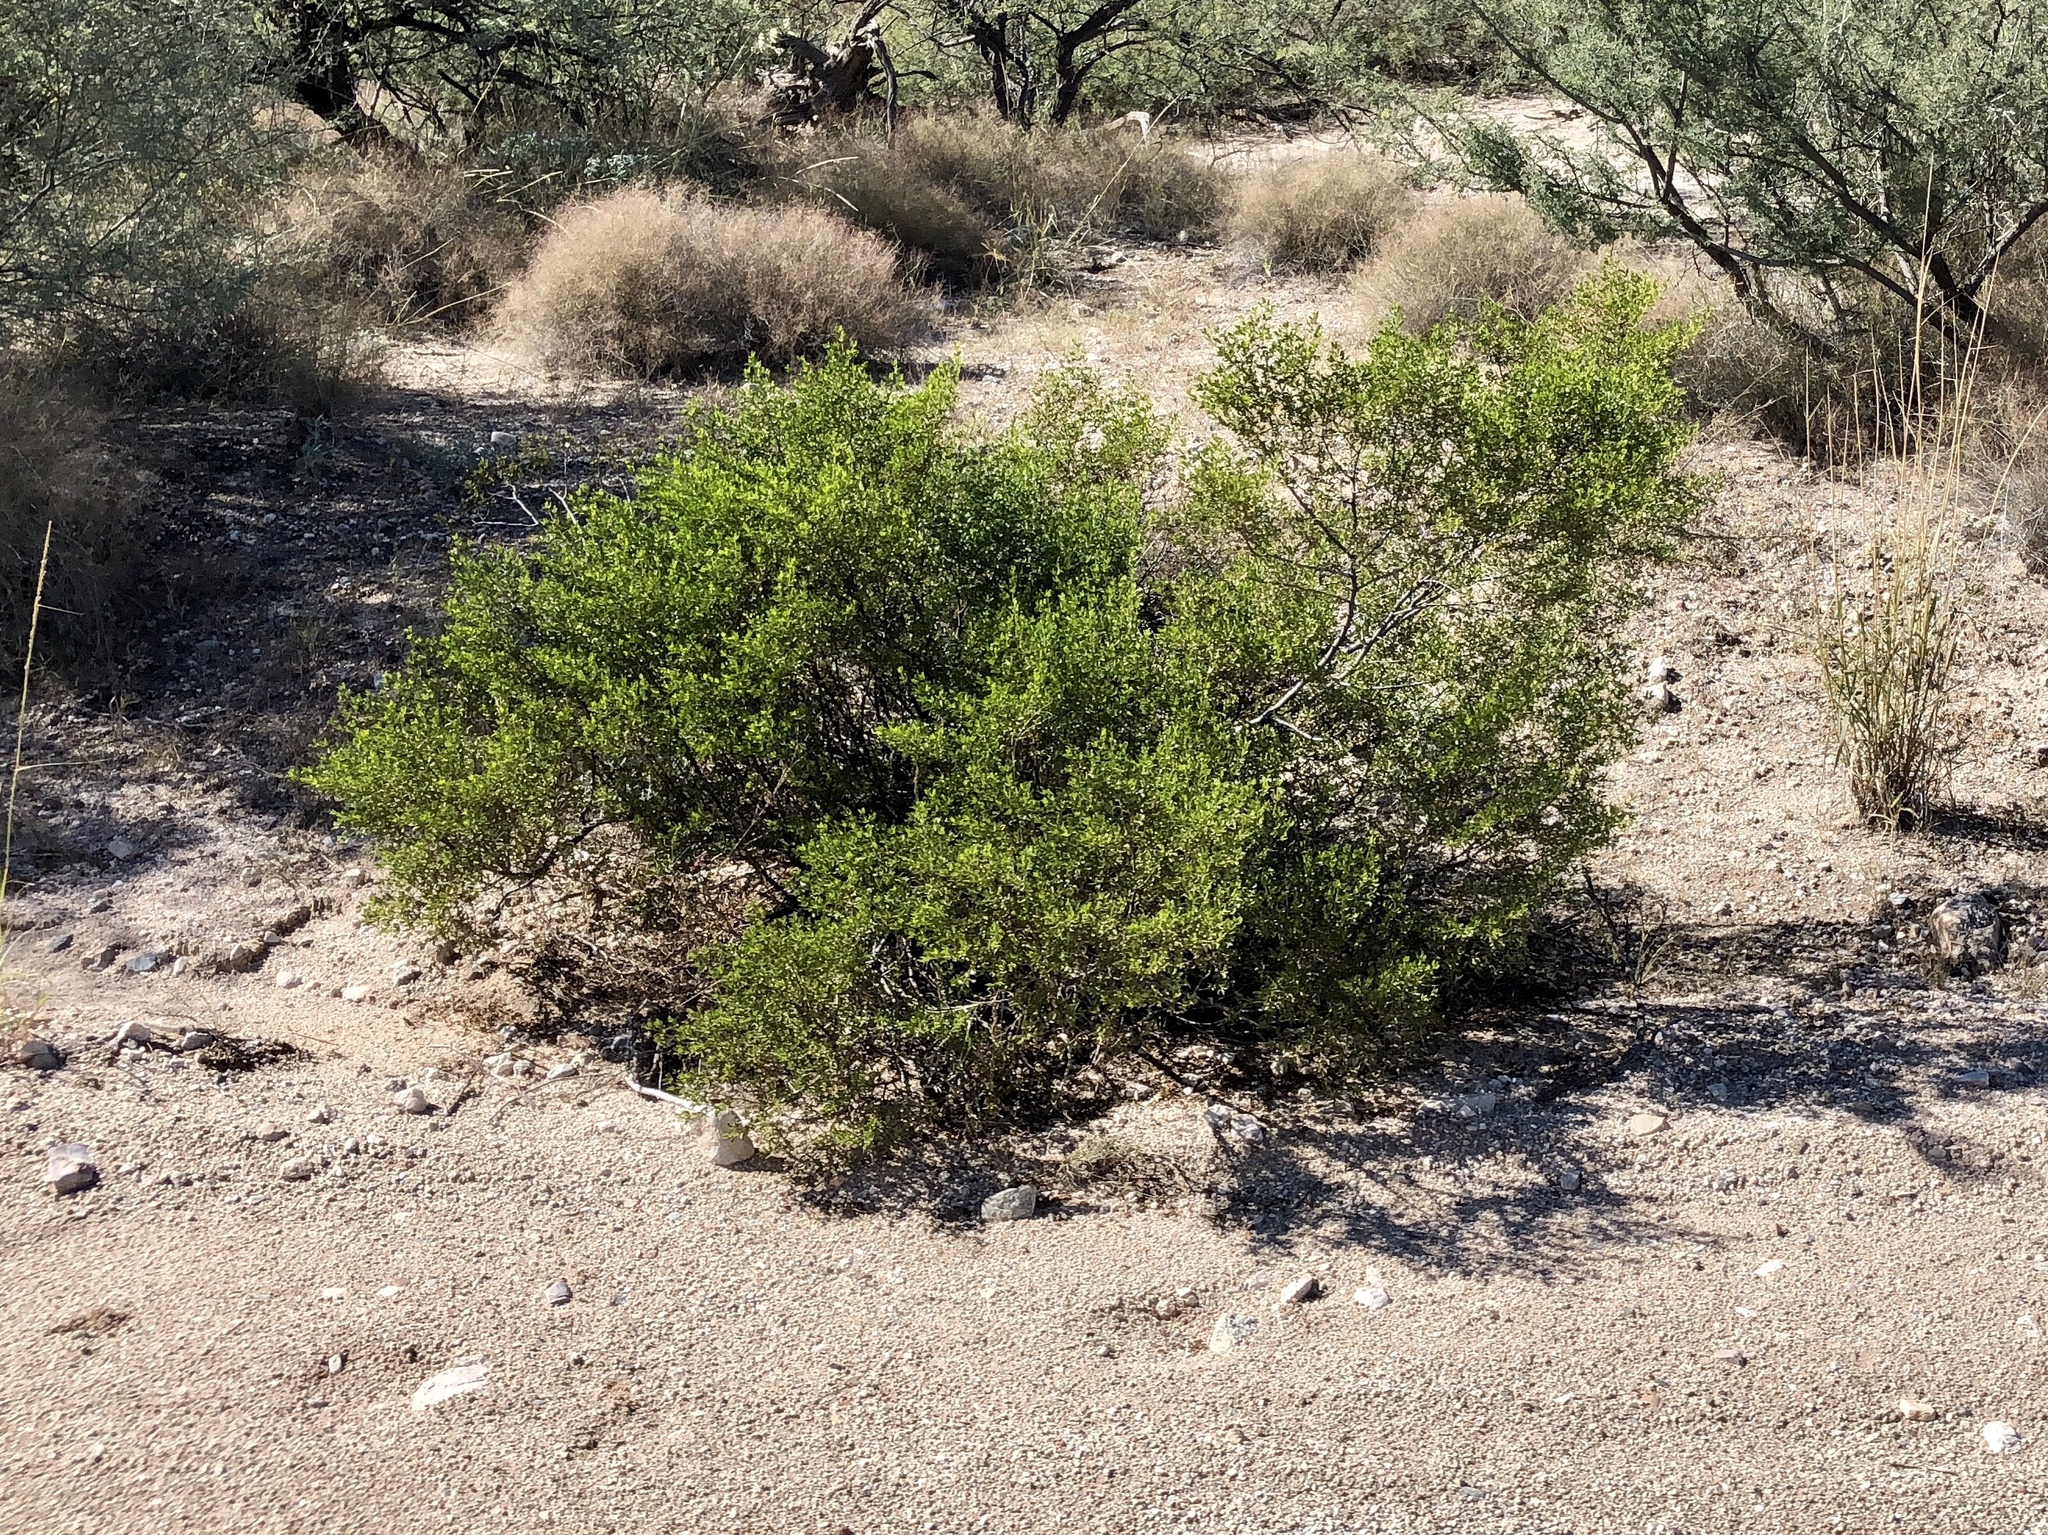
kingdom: Plantae
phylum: Tracheophyta
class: Magnoliopsida
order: Zygophyllales
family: Zygophyllaceae
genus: Larrea
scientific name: Larrea tridentata
